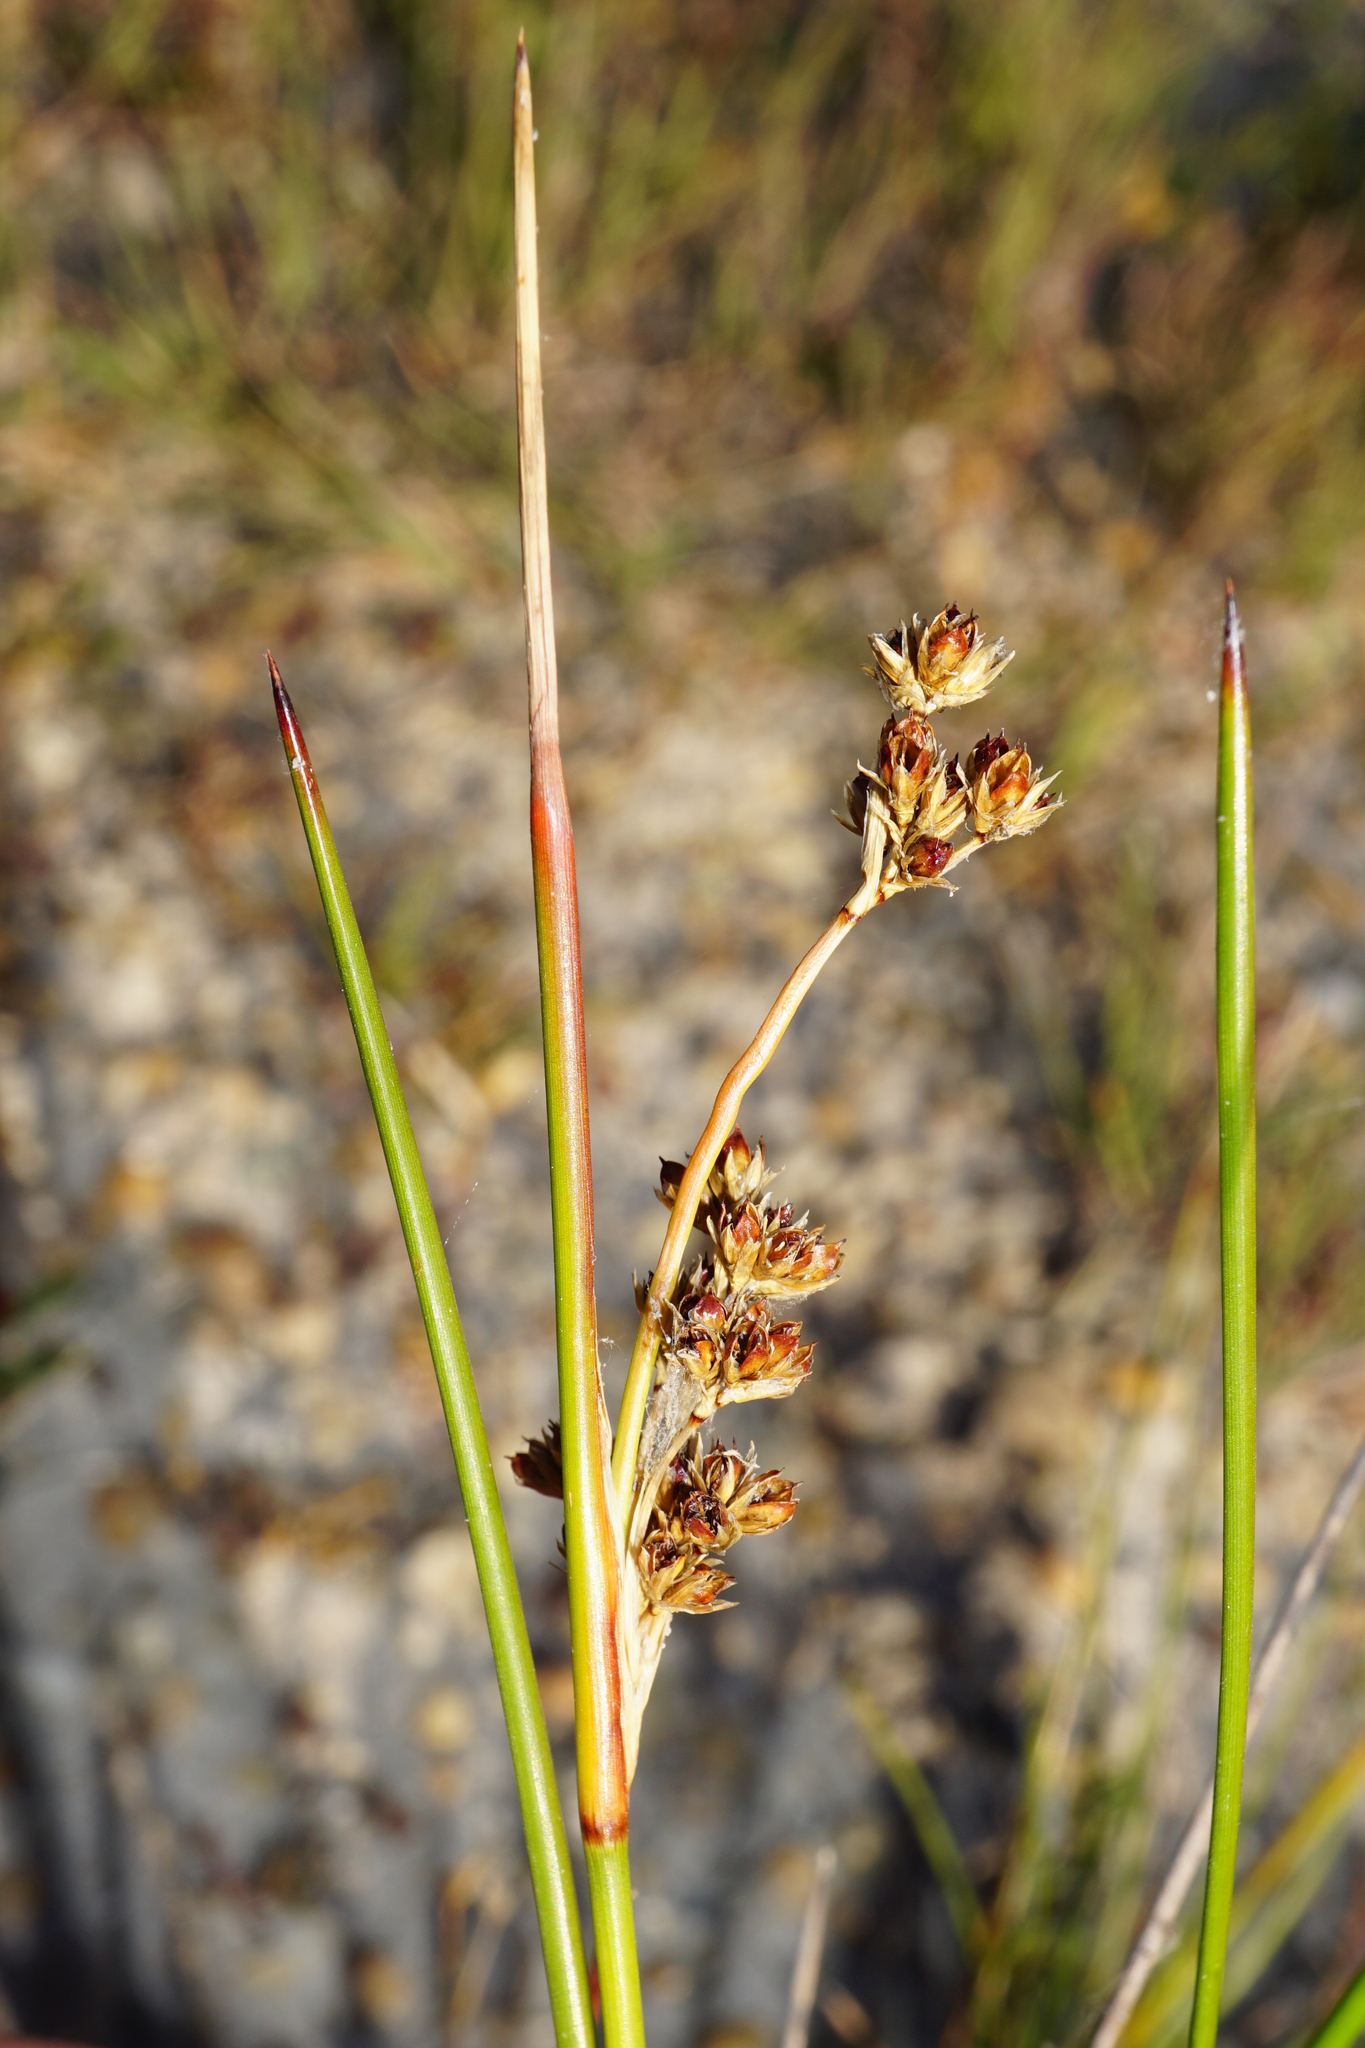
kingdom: Plantae
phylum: Tracheophyta
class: Liliopsida
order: Poales
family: Juncaceae
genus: Juncus
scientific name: Juncus maritimus
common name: Sea rush
